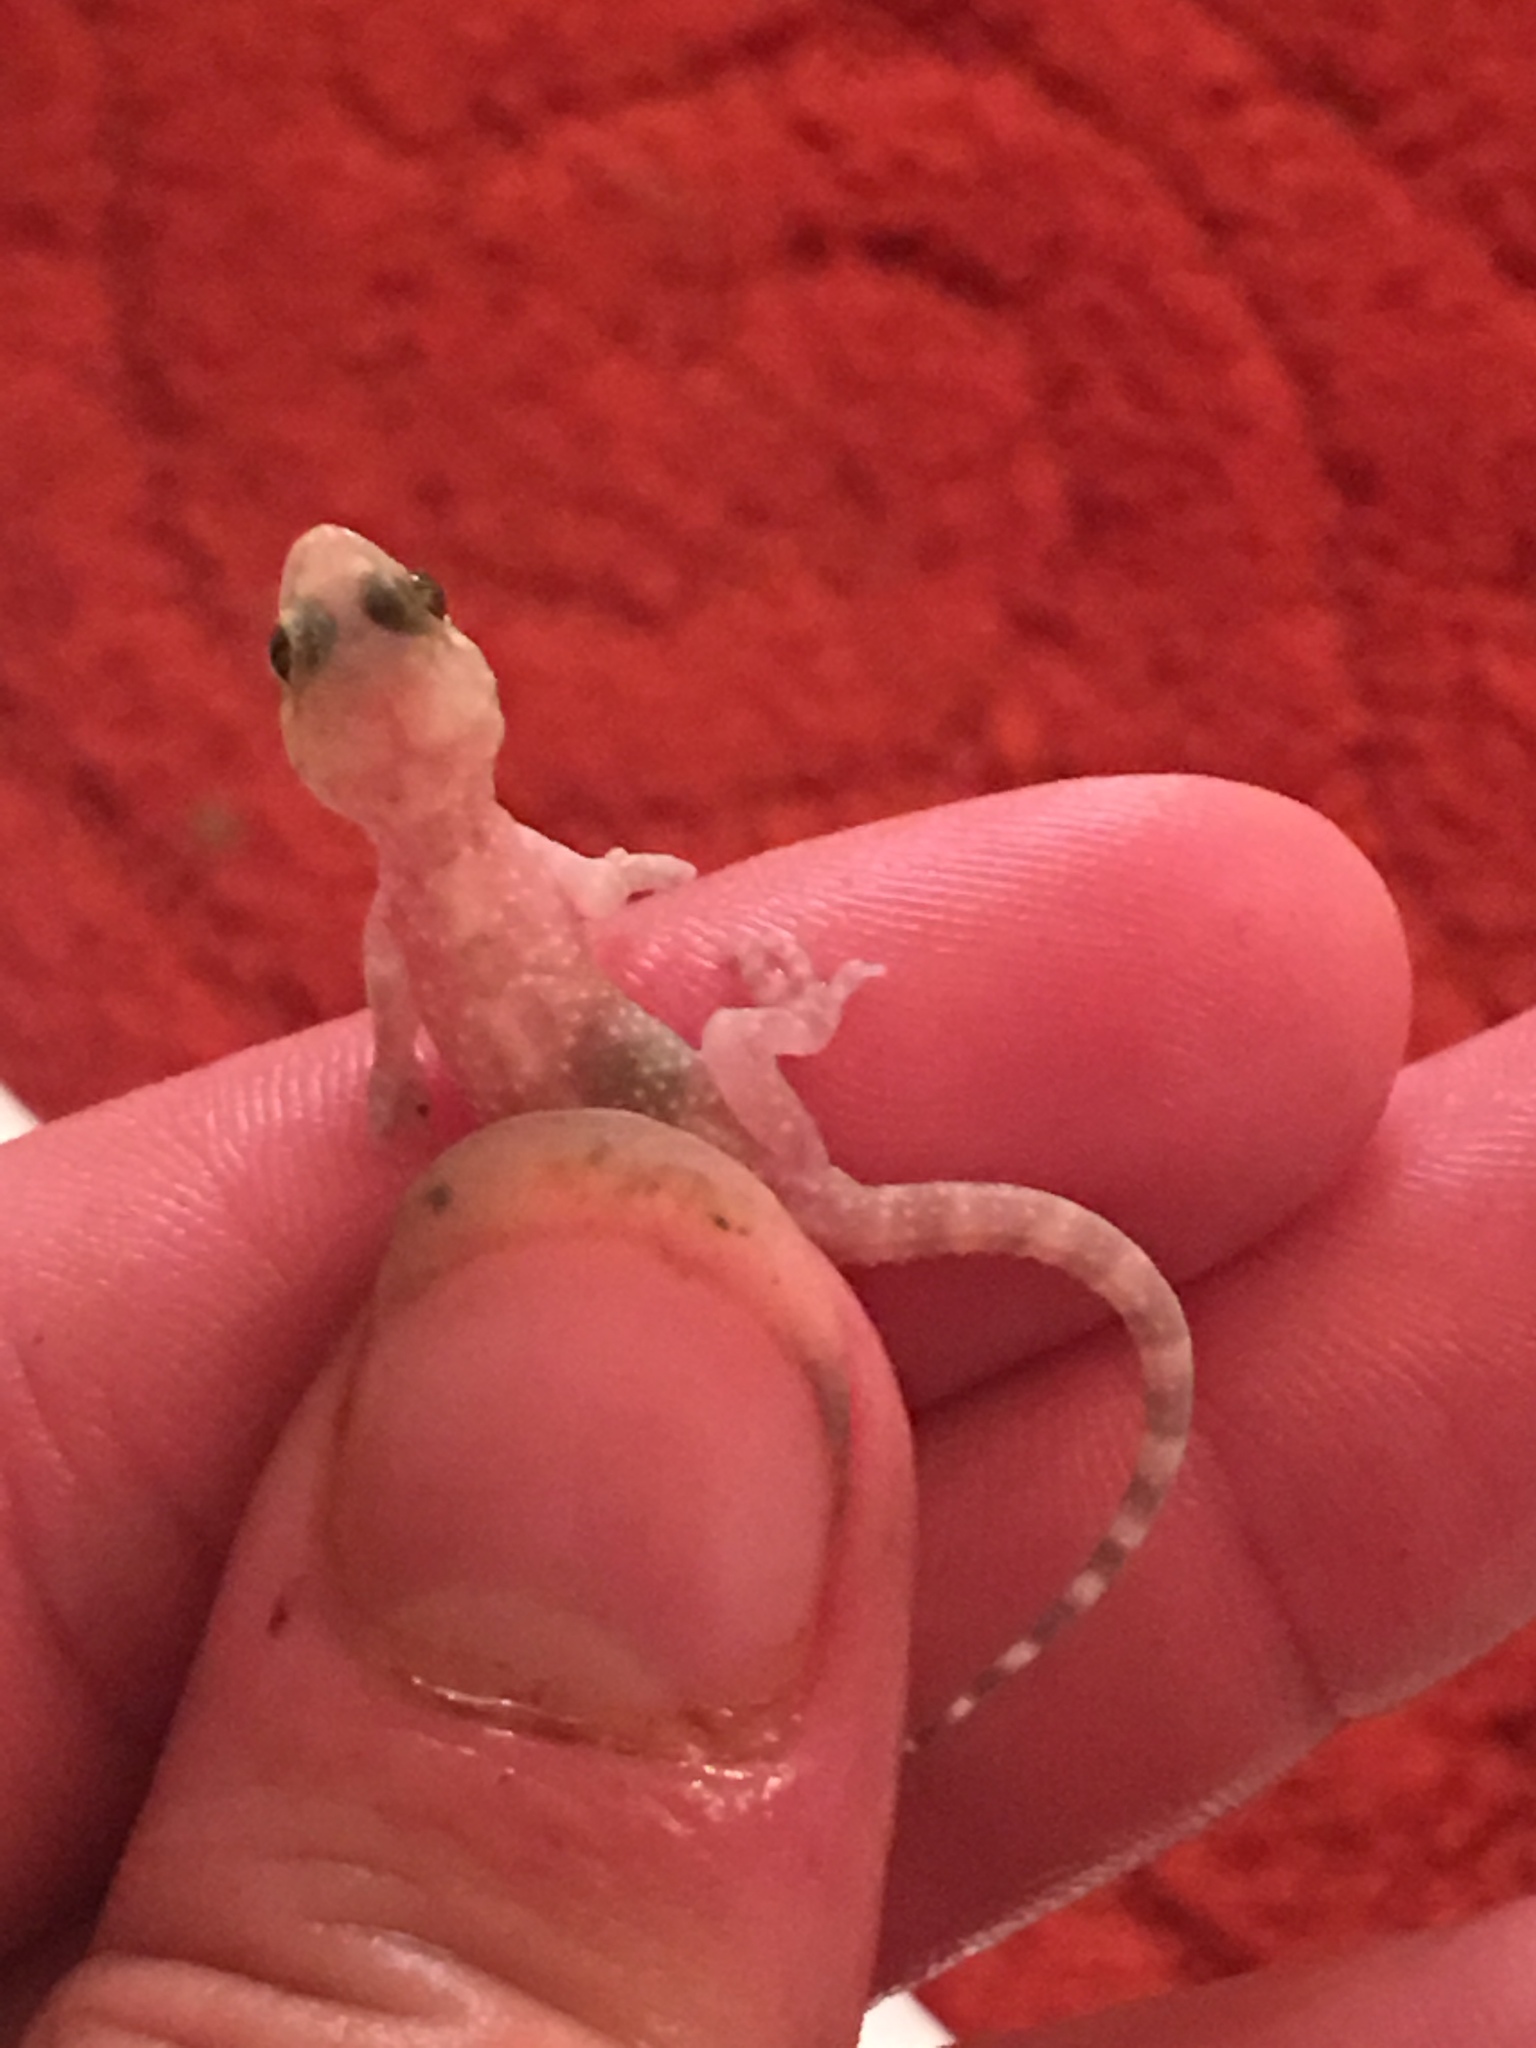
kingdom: Animalia
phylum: Chordata
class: Squamata
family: Gekkonidae
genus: Hemidactylus
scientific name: Hemidactylus turcicus
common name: Turkish gecko
